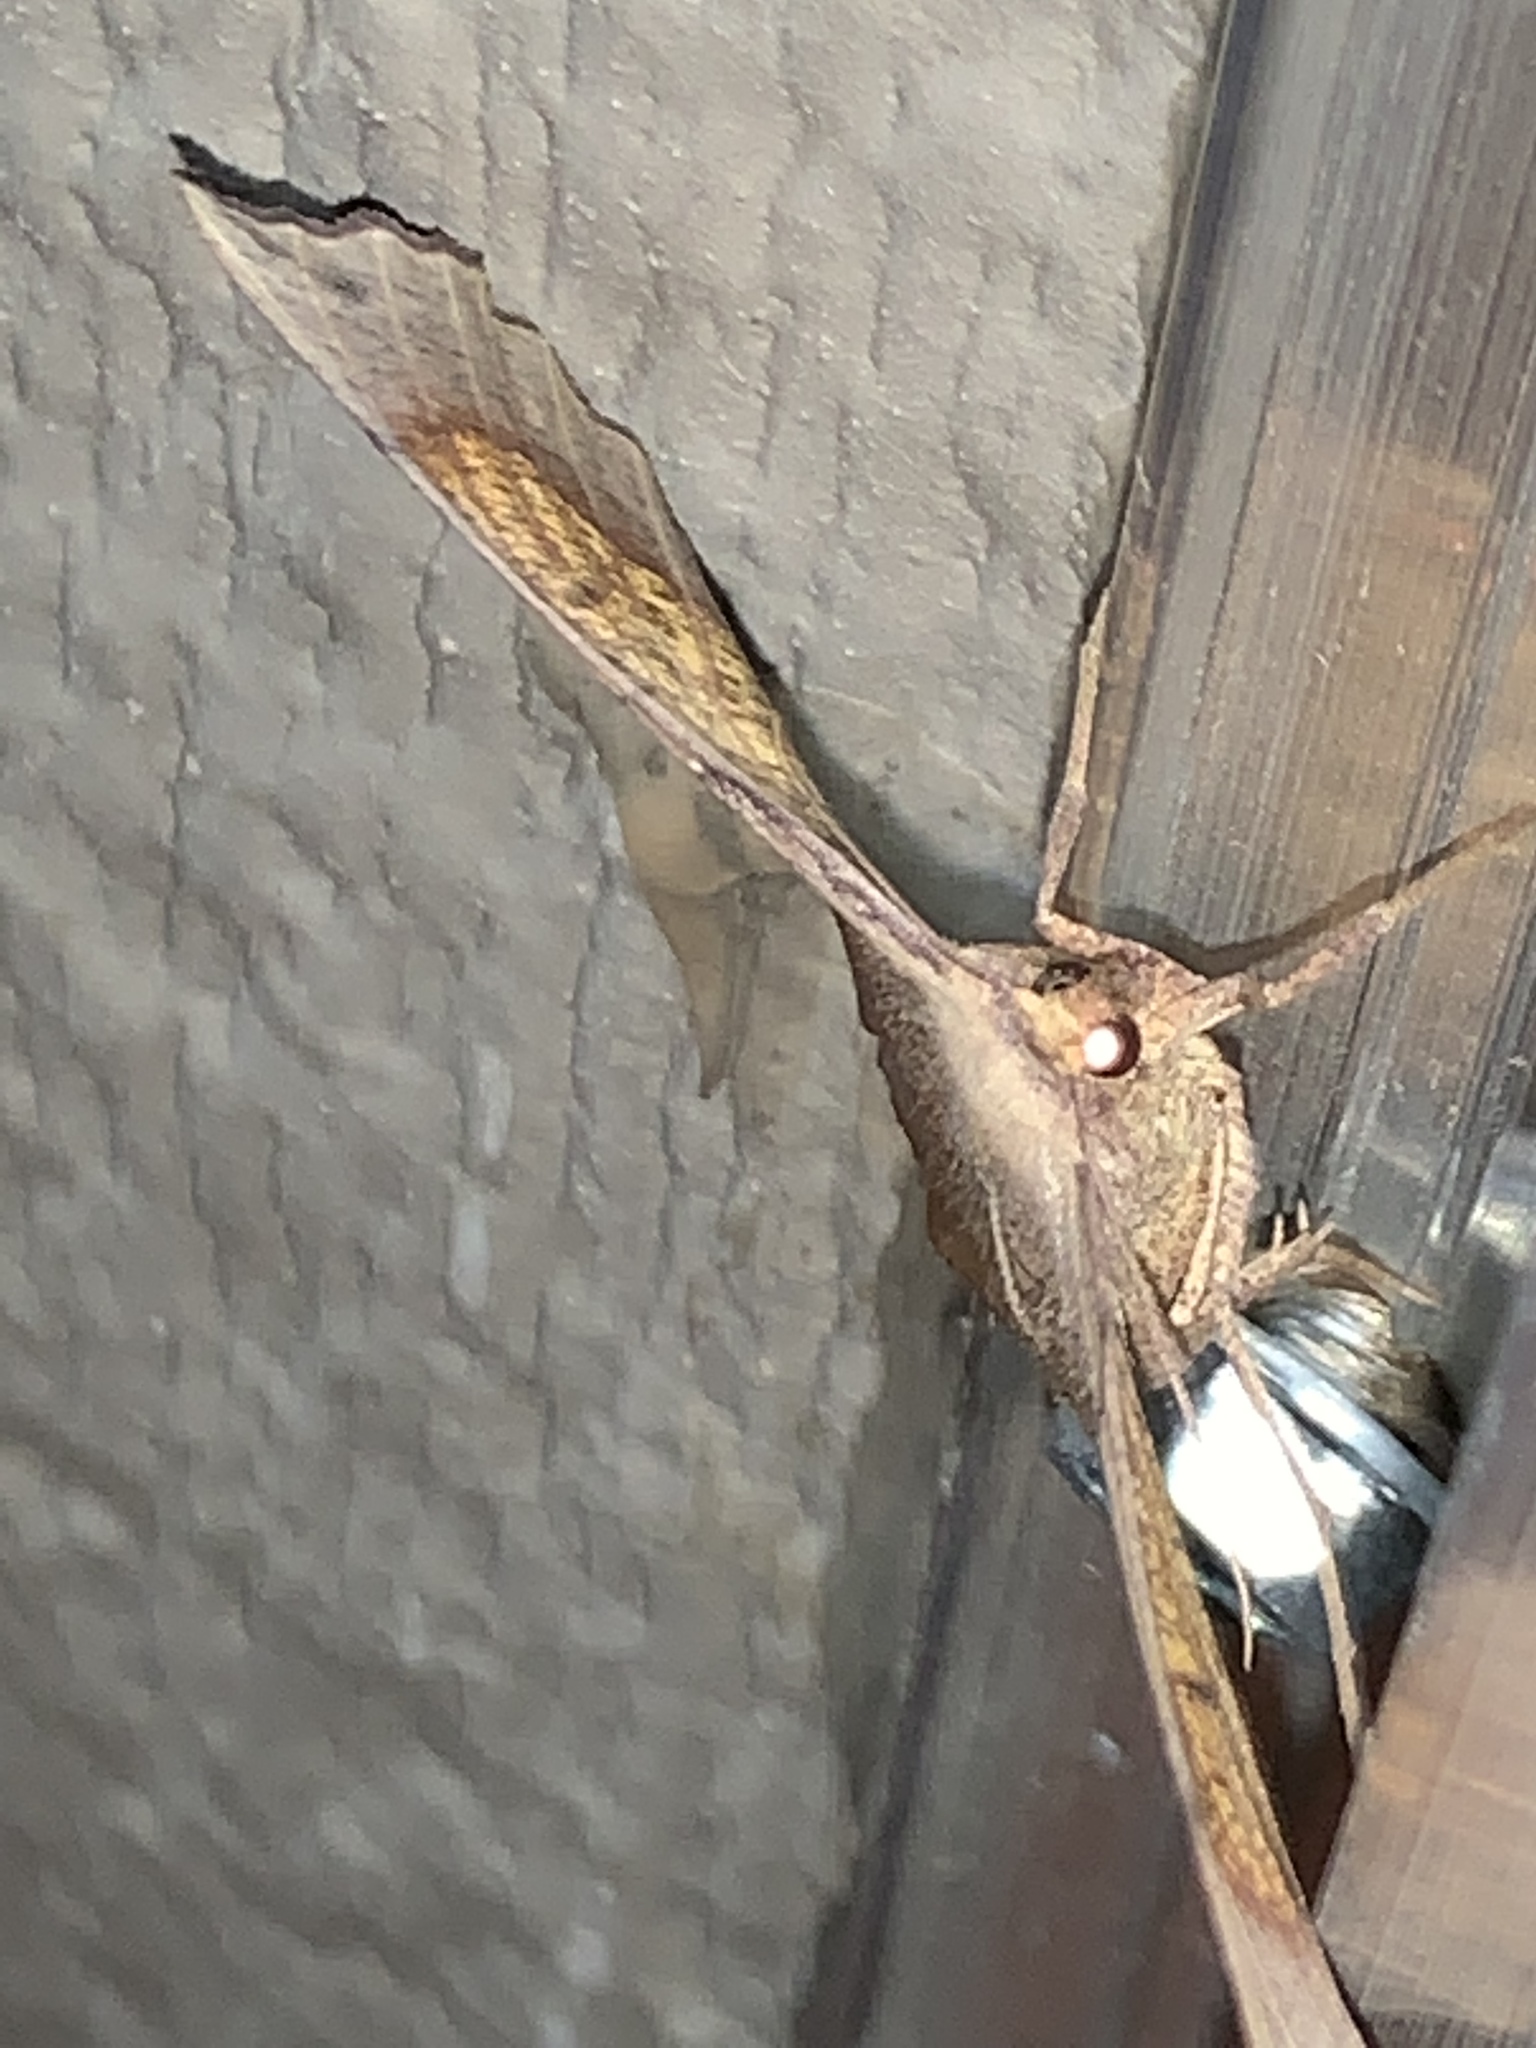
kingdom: Animalia
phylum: Arthropoda
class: Insecta
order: Lepidoptera
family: Geometridae
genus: Euchlaena
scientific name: Euchlaena obtusaria
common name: Obtuse euchlaena moth
